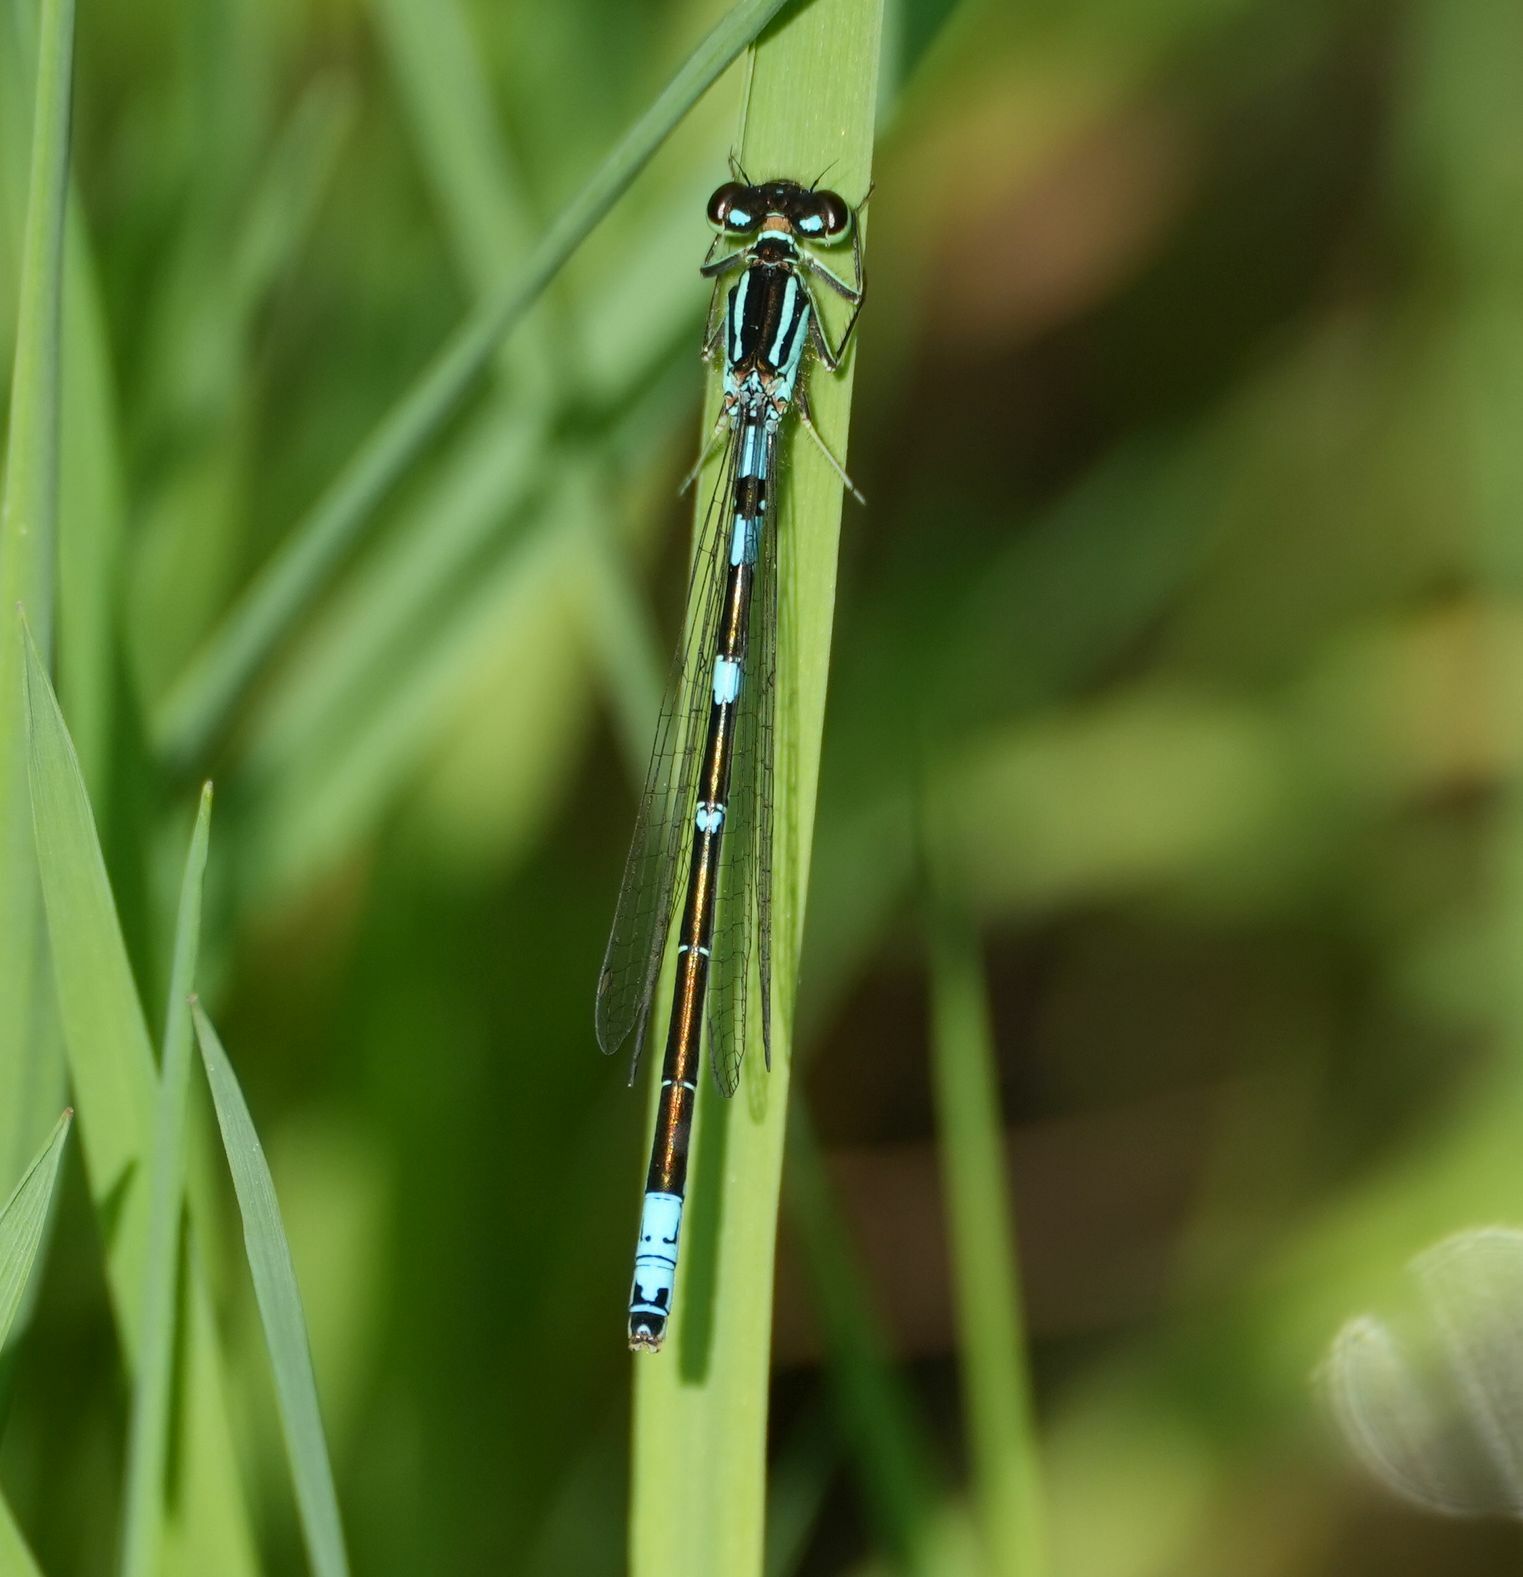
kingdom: Animalia
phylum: Arthropoda
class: Insecta
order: Odonata
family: Coenagrionidae
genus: Coenagrion
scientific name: Coenagrion resolutum
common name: Taiga bluet
